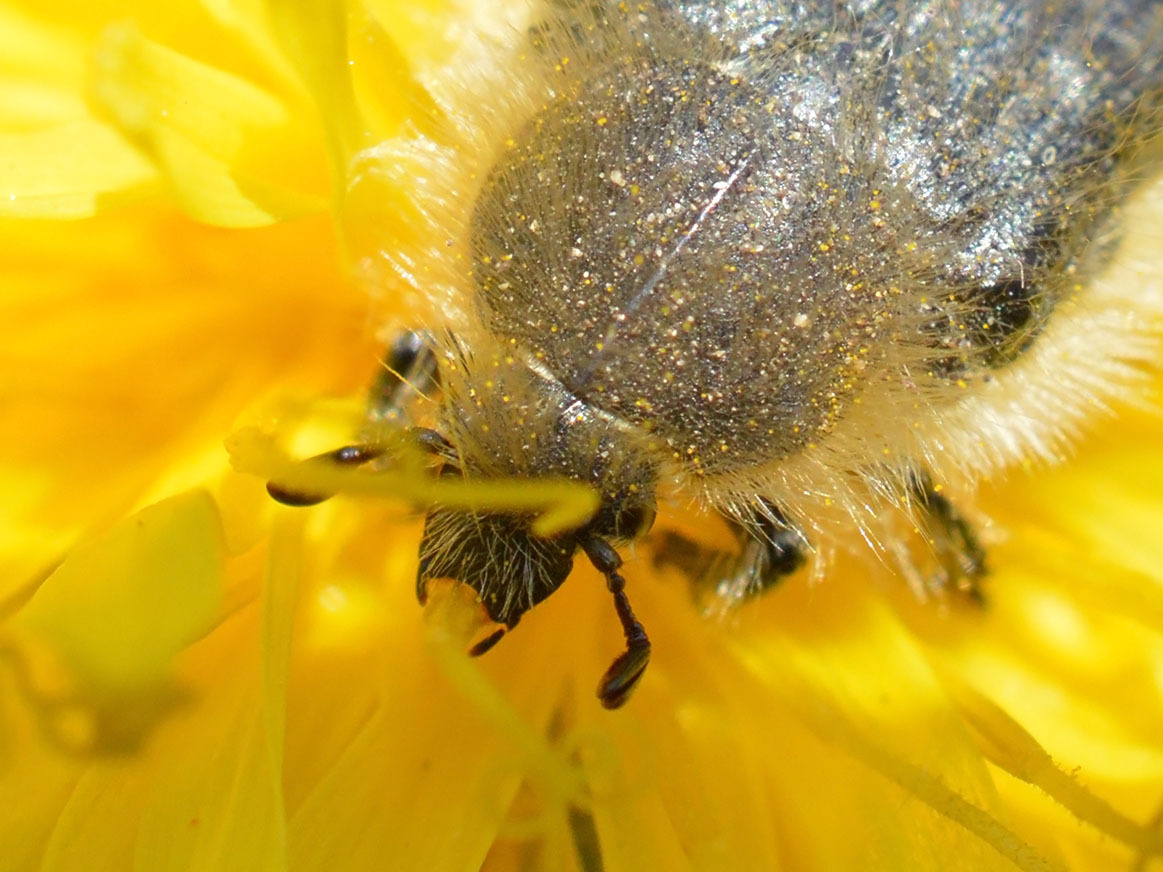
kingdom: Animalia
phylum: Arthropoda
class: Insecta
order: Coleoptera
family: Scarabaeidae
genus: Tropinota
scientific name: Tropinota hirta
